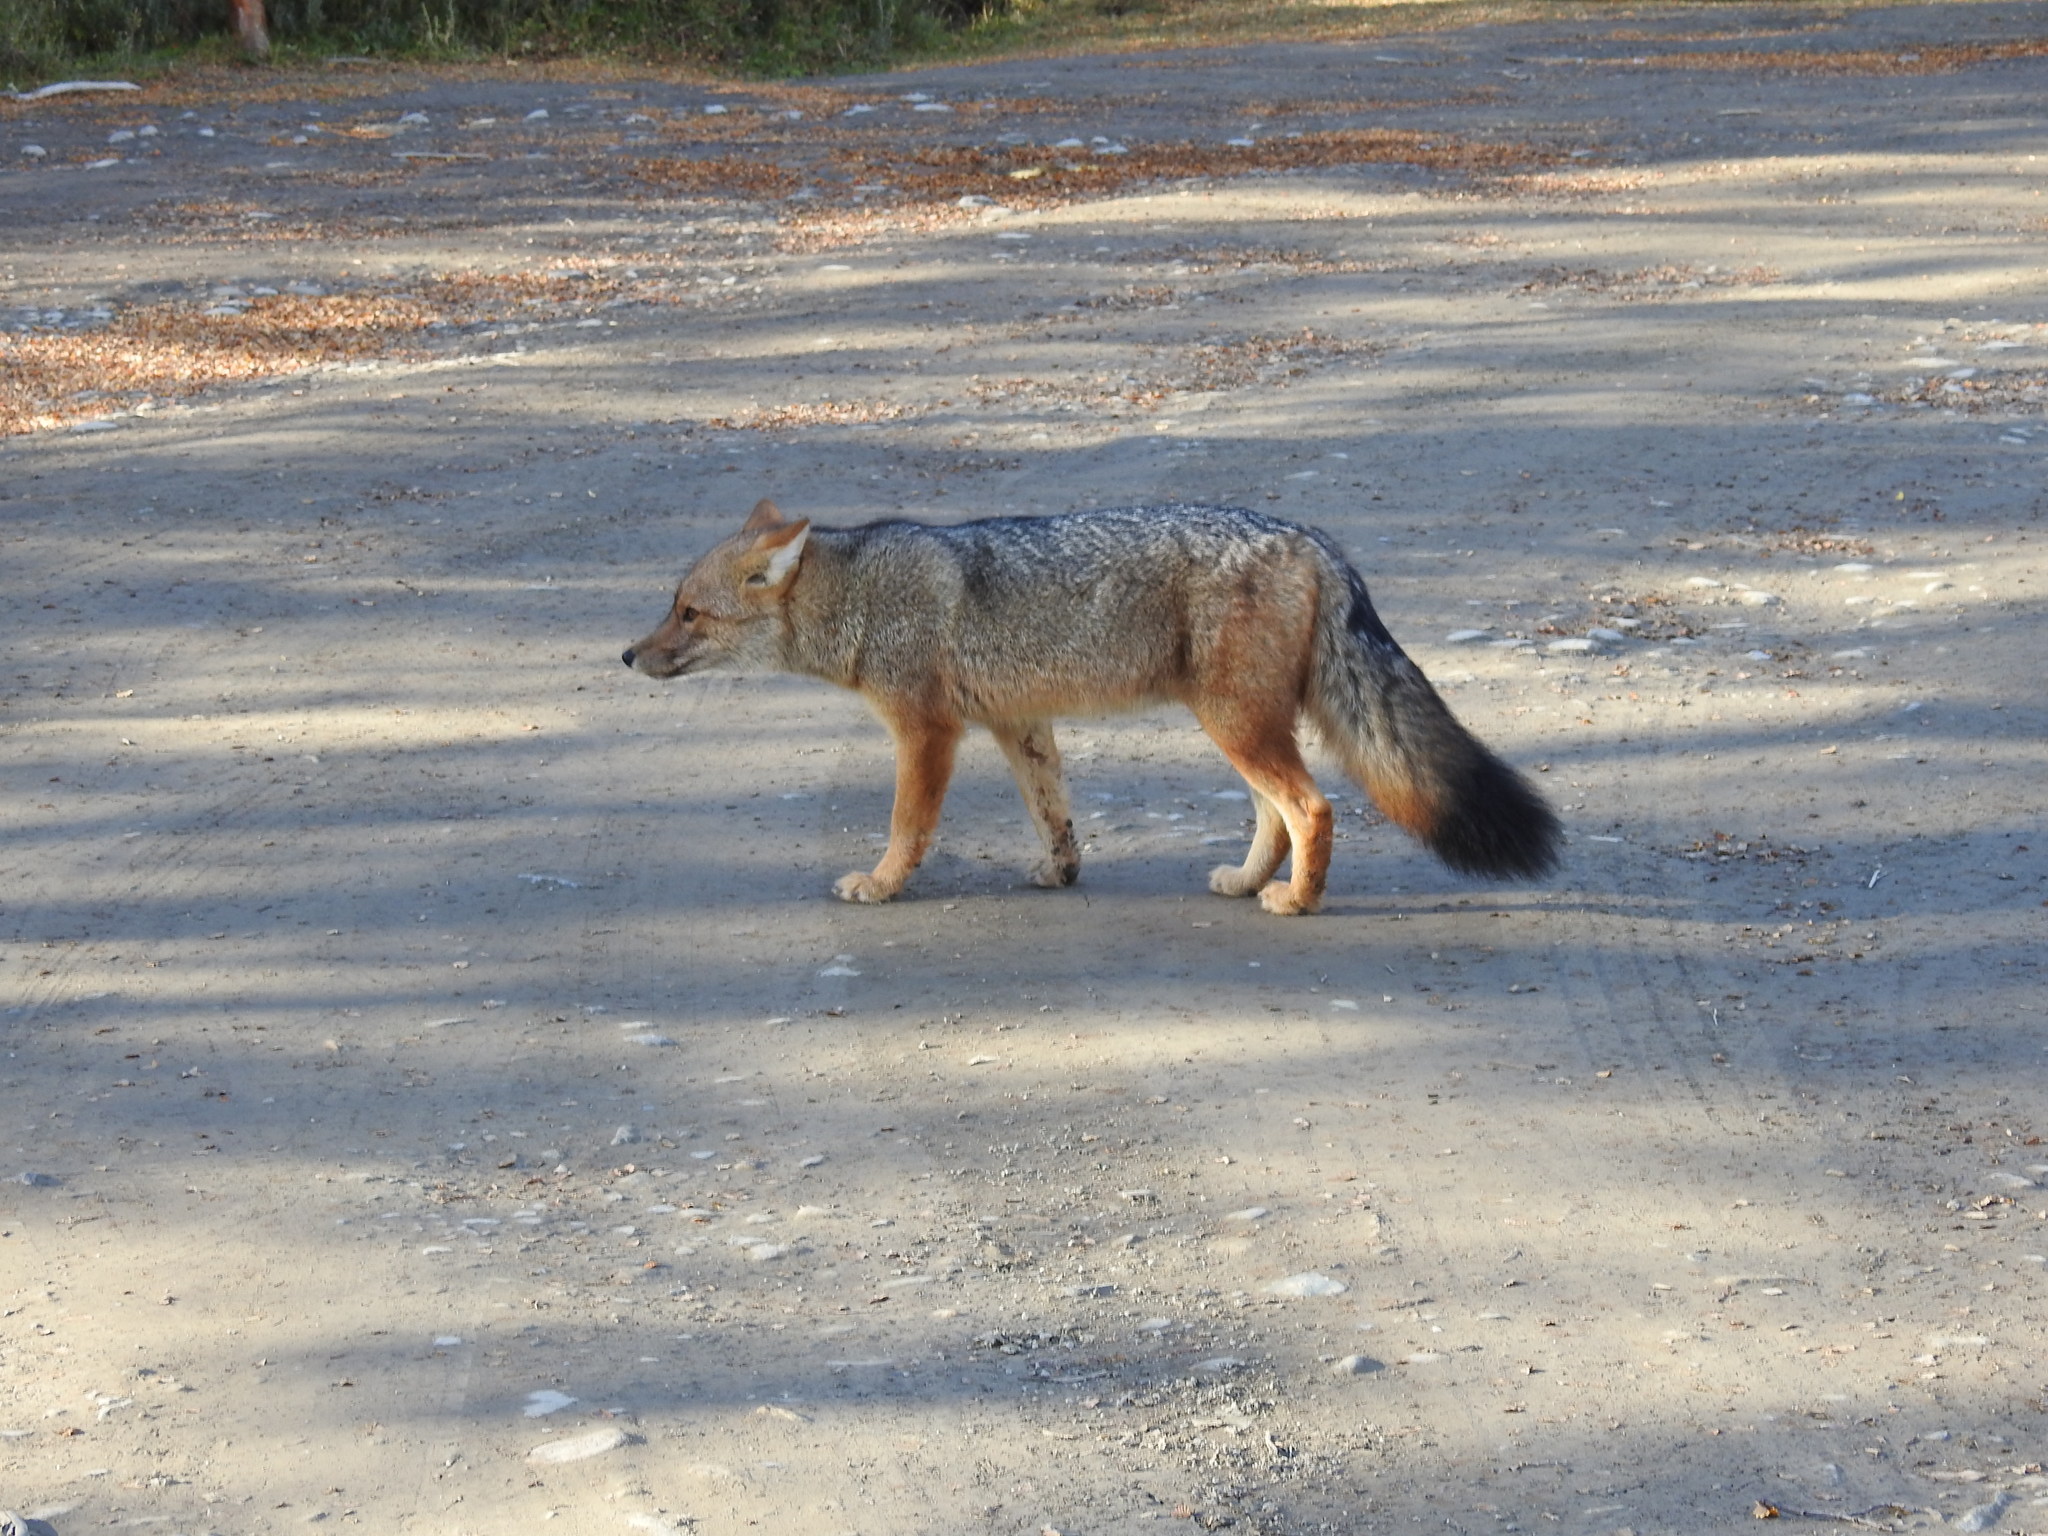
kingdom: Animalia
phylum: Chordata
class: Mammalia
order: Carnivora
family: Canidae
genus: Lycalopex
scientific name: Lycalopex culpaeus
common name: Culpeo
